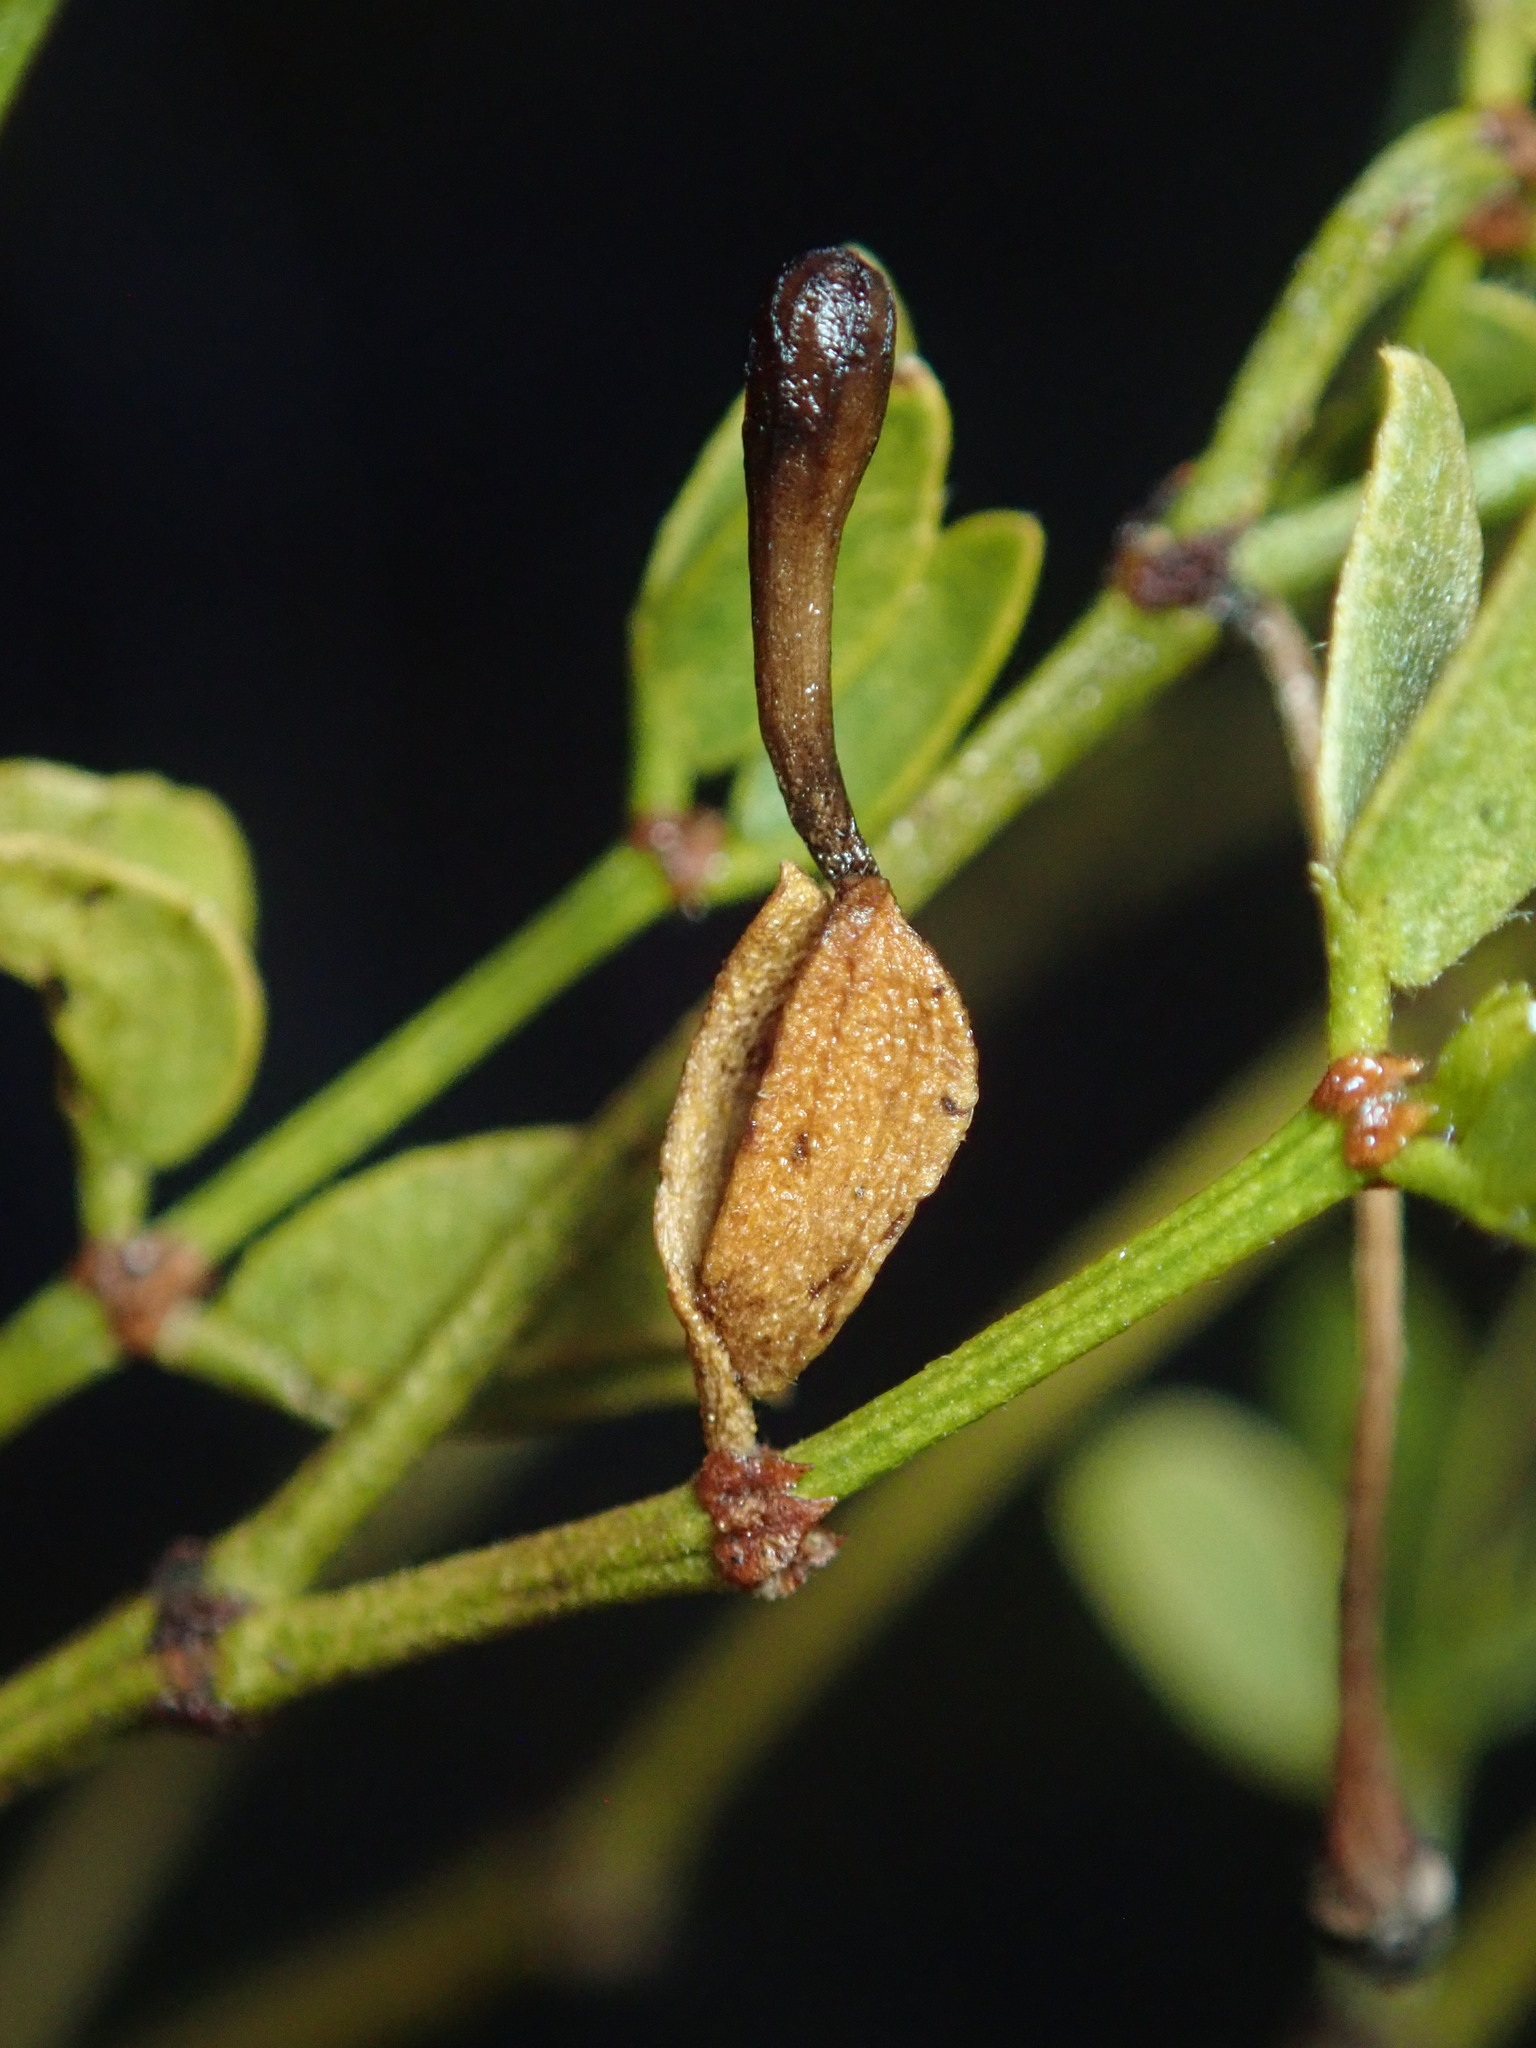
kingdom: Animalia
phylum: Arthropoda
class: Insecta
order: Diptera
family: Cecidomyiidae
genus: Asphondylia
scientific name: Asphondylia clavata
